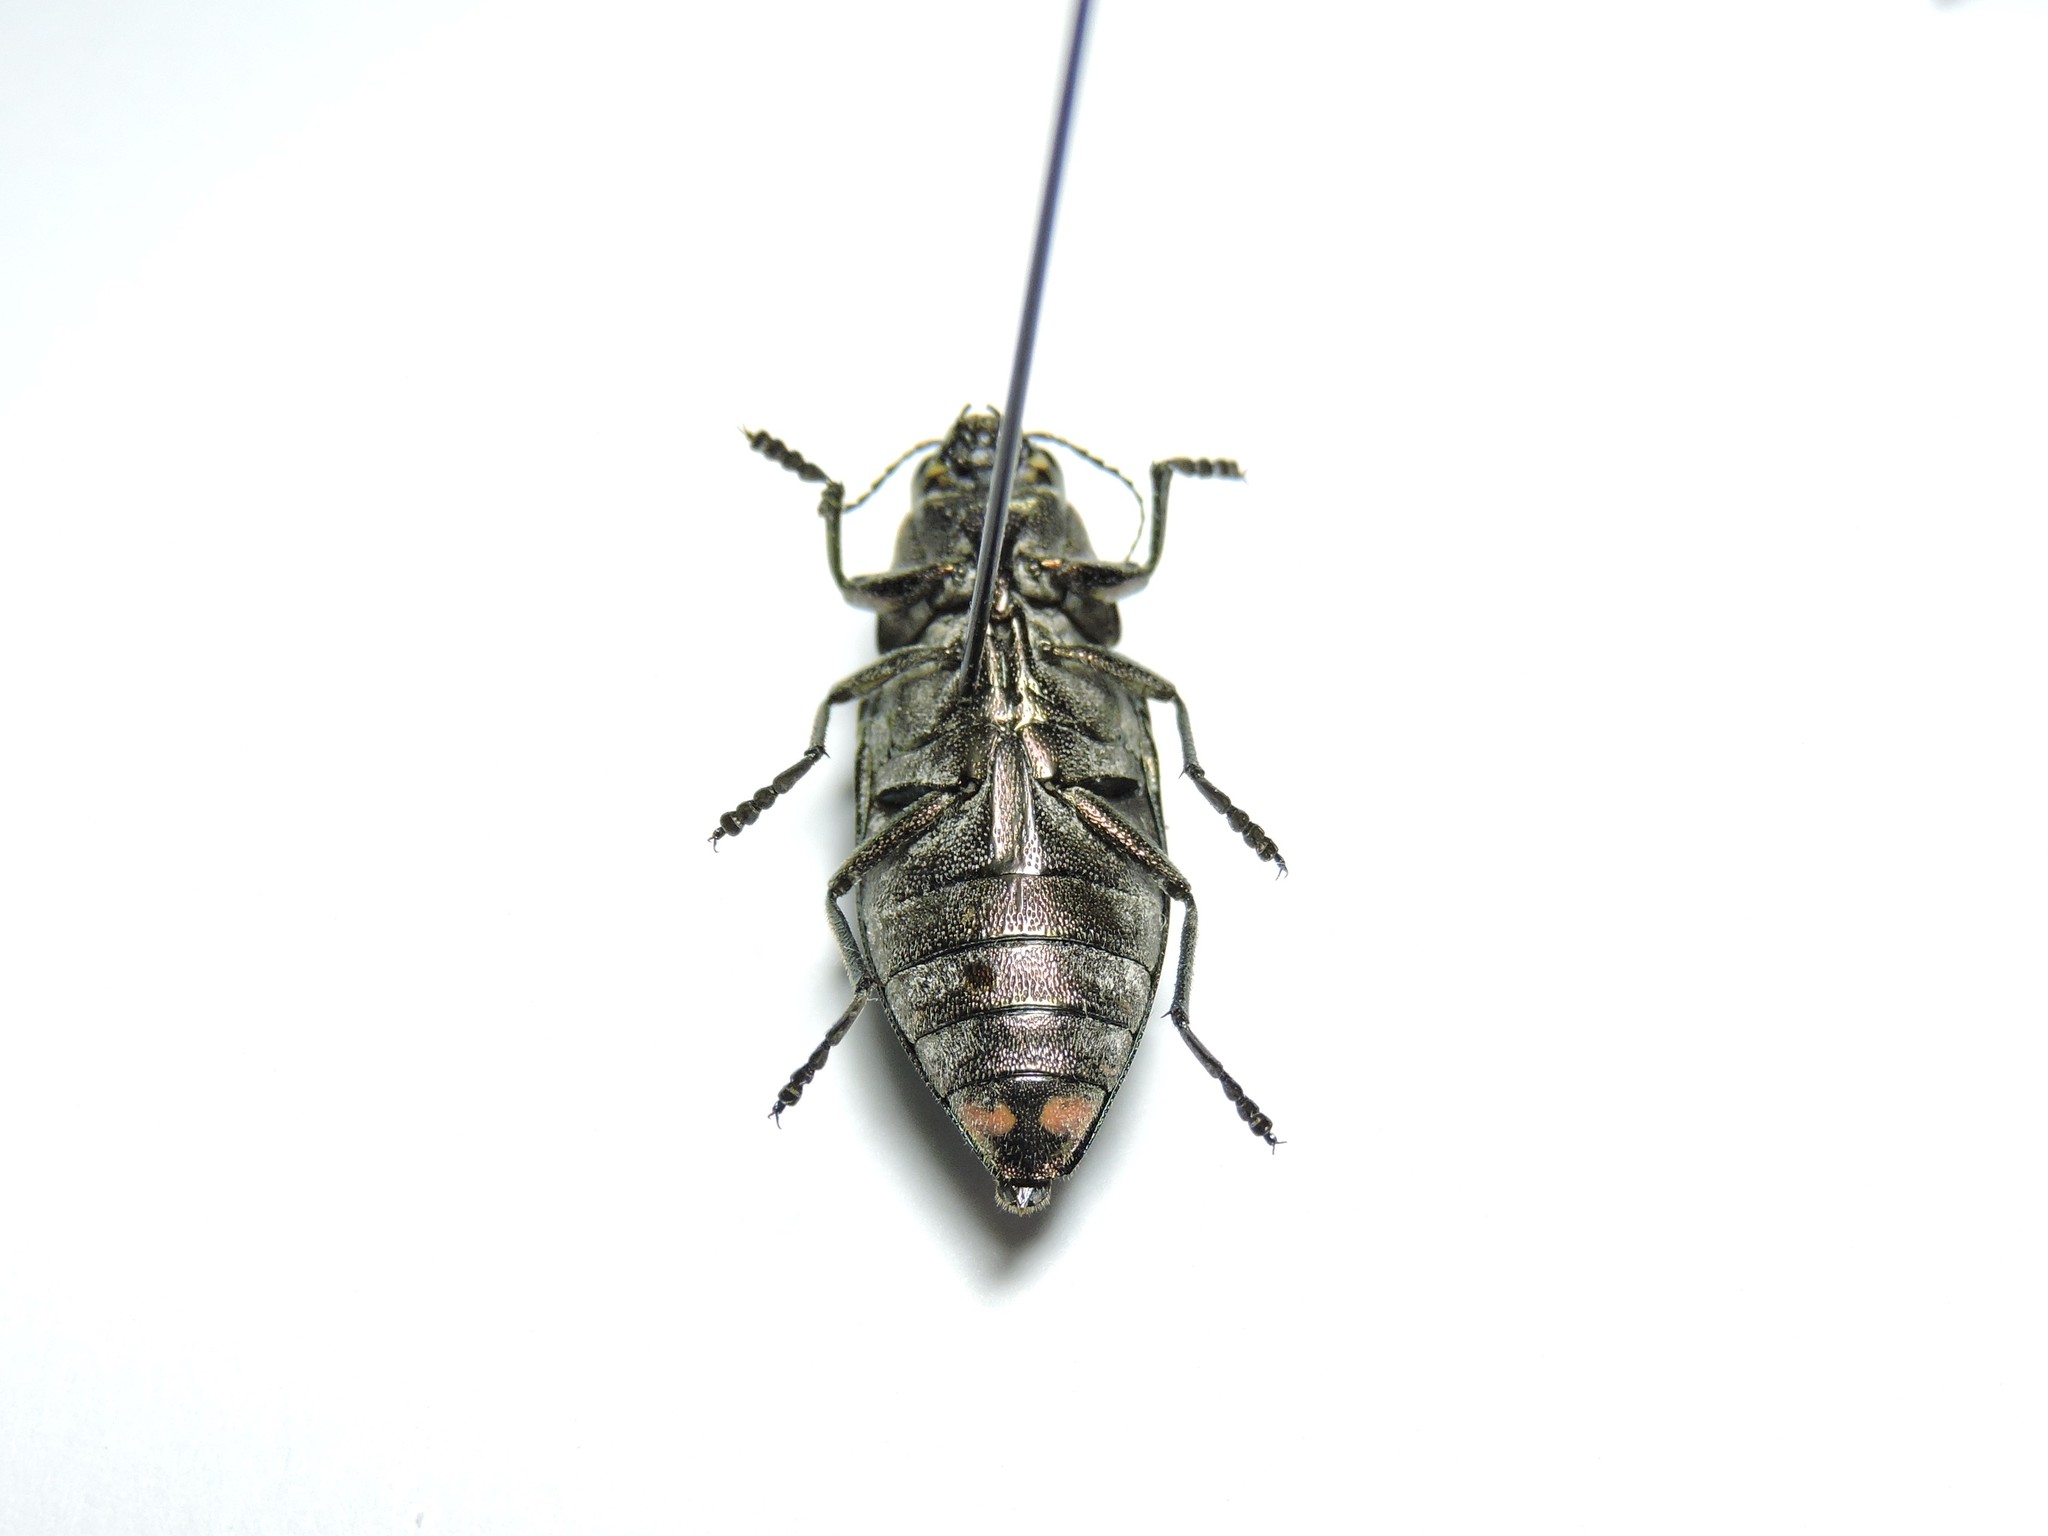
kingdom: Animalia
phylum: Arthropoda
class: Insecta
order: Coleoptera
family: Buprestidae
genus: Buprestis
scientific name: Buprestis haemorrhoidalis
